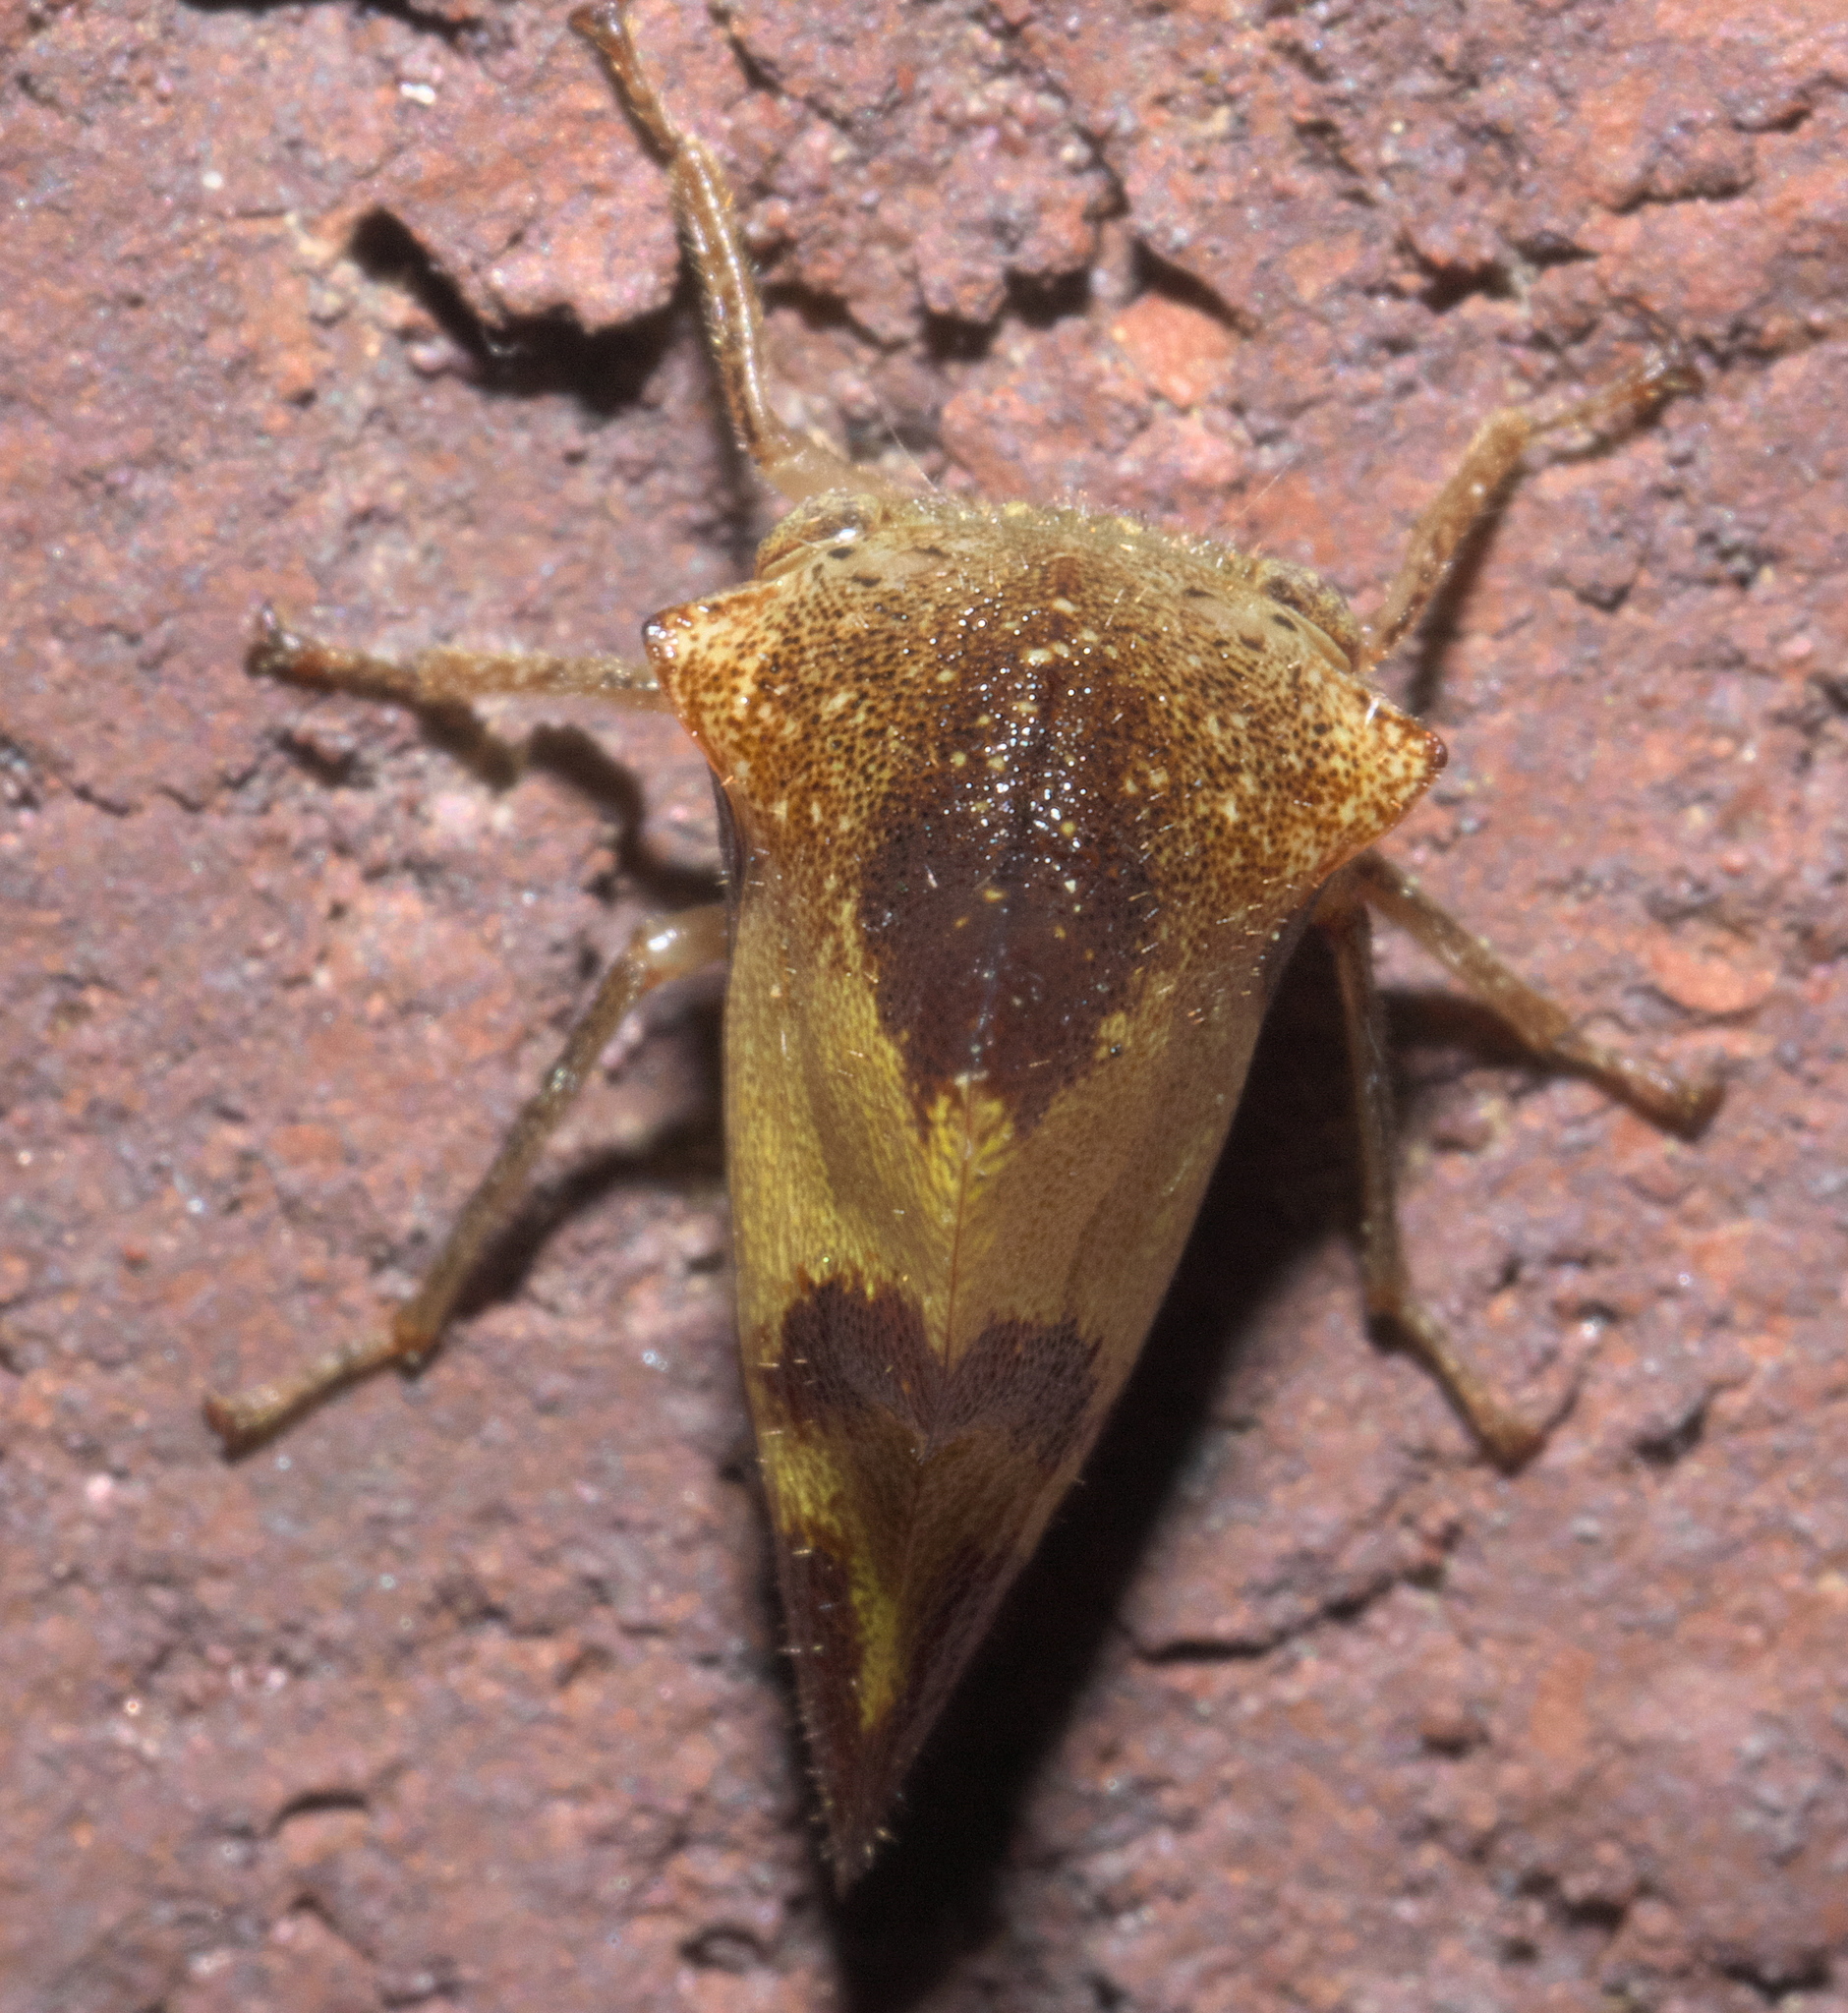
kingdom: Animalia
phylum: Arthropoda
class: Insecta
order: Hemiptera
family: Membracidae
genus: Helonica
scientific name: Helonica excelsa
